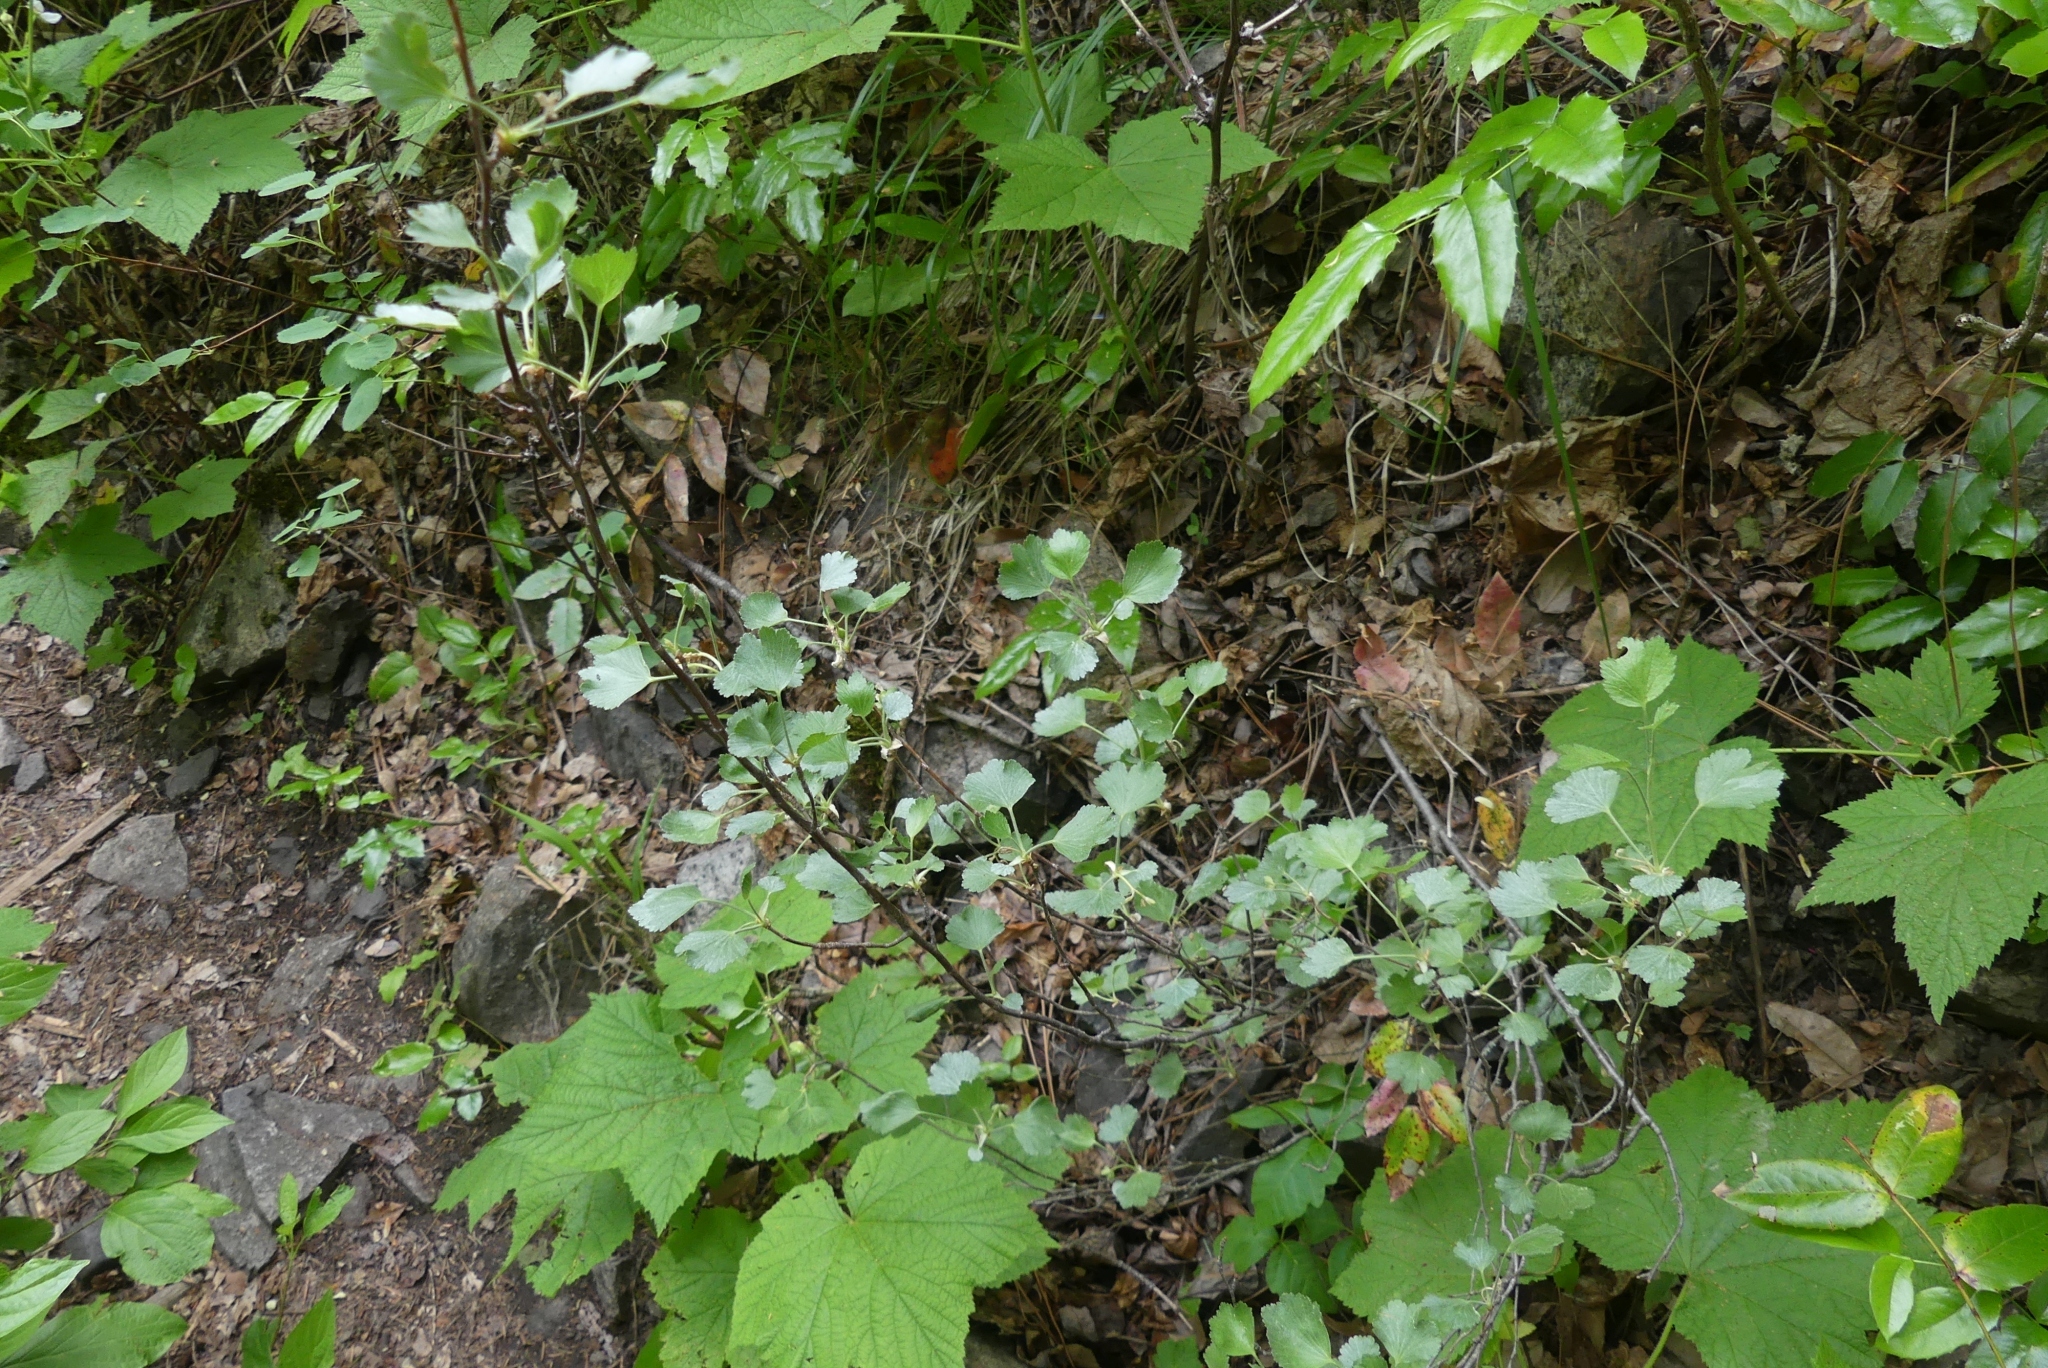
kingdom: Plantae
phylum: Tracheophyta
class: Magnoliopsida
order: Saxifragales
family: Grossulariaceae
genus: Ribes
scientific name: Ribes cereum
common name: Wax currant
